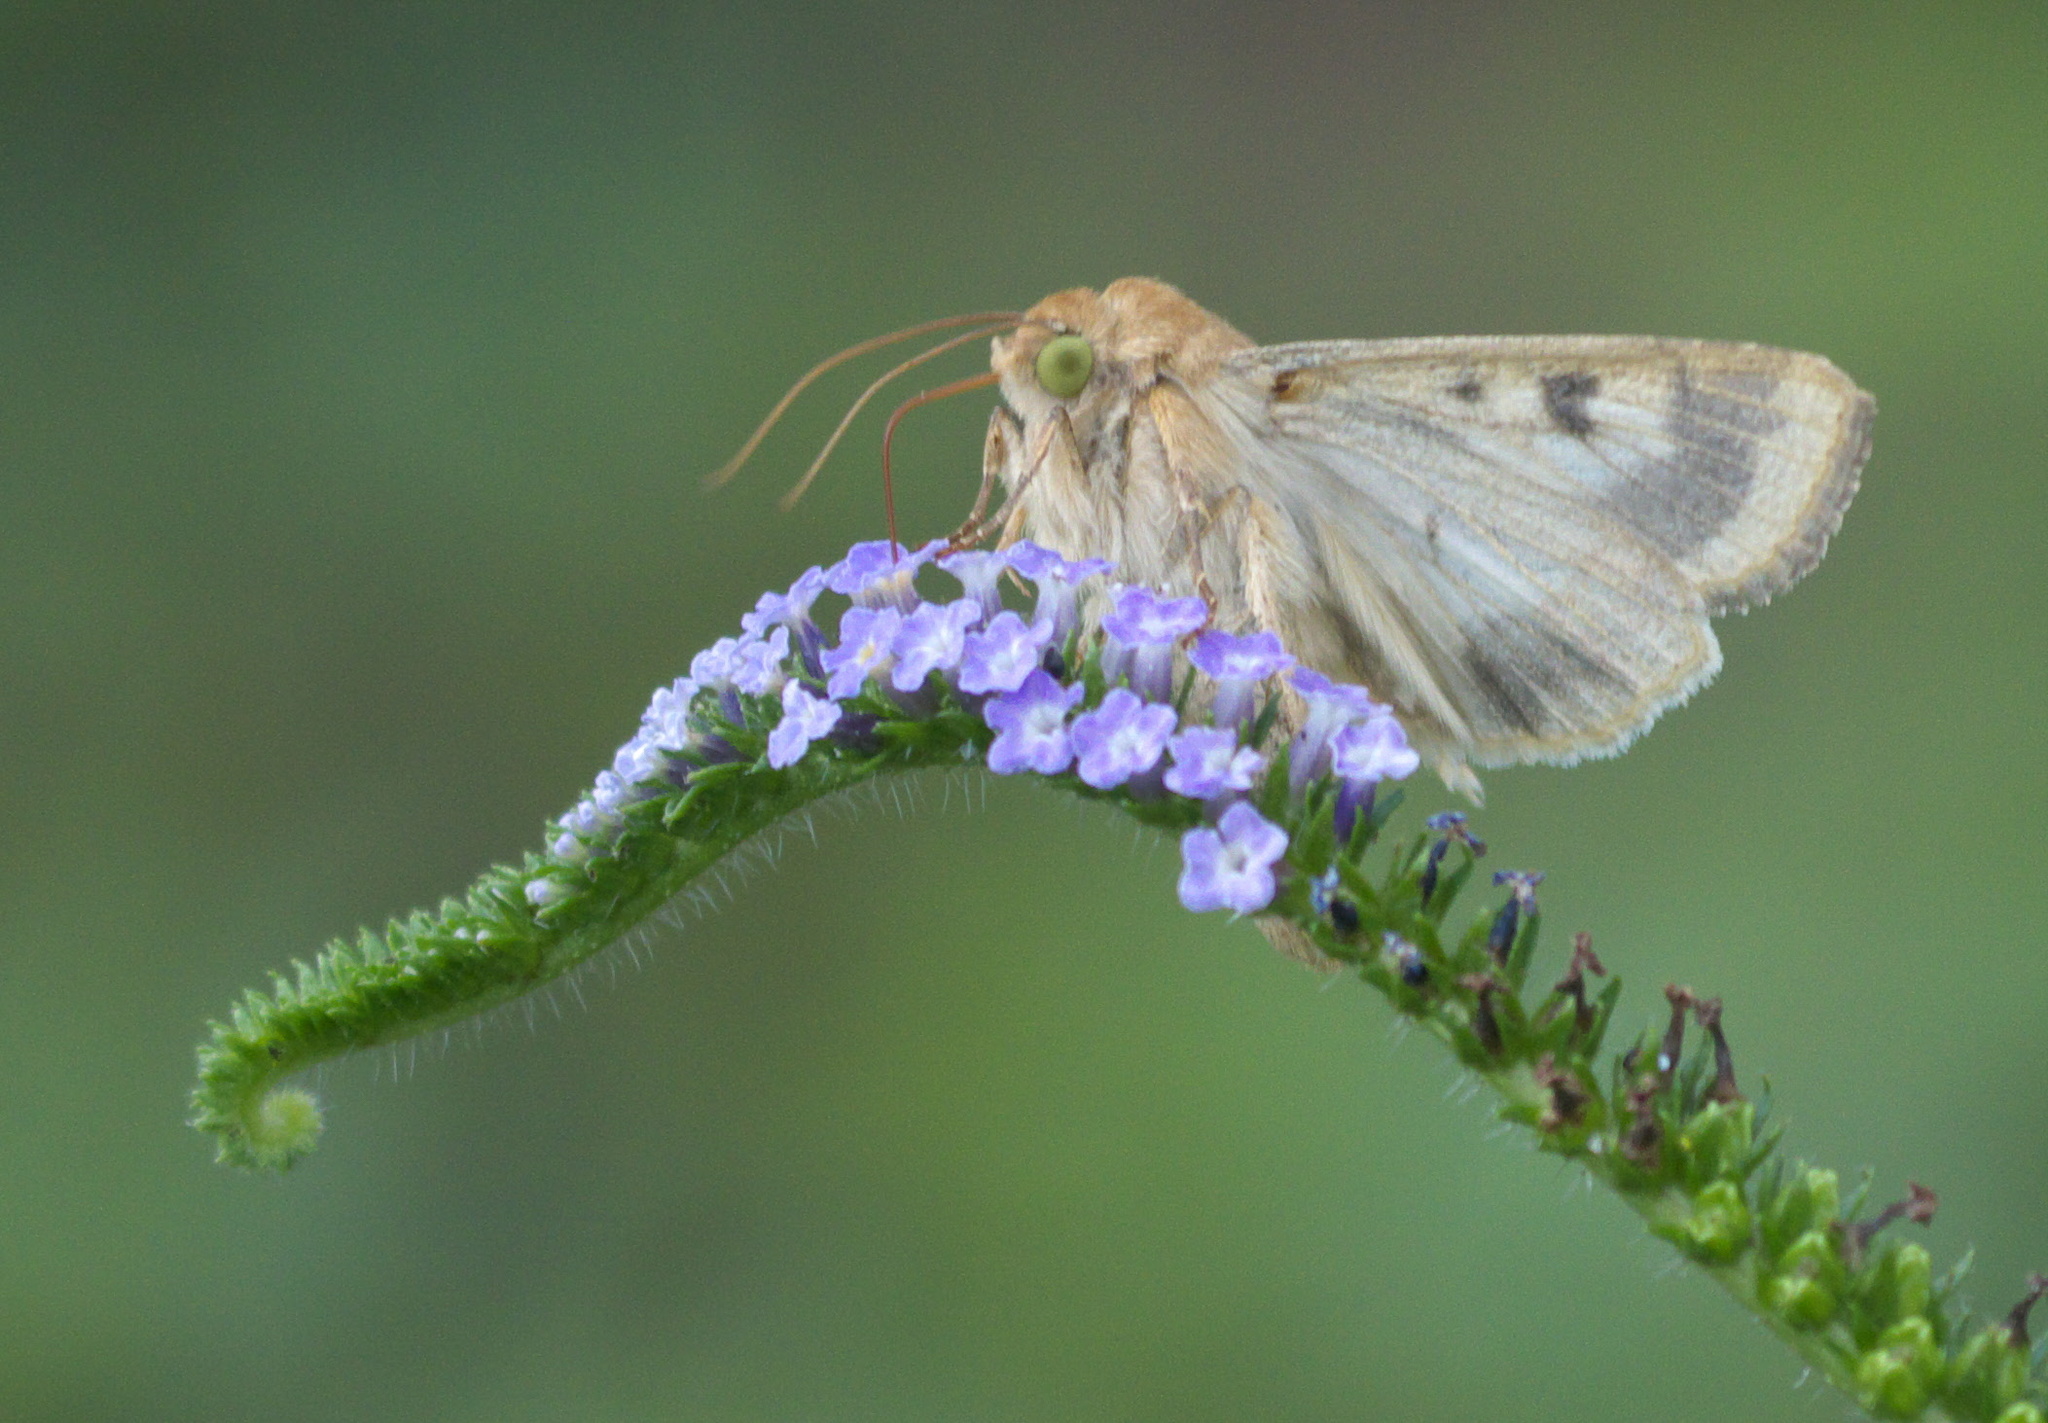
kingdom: Animalia
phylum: Arthropoda
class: Insecta
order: Lepidoptera
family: Noctuidae
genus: Helicoverpa
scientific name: Helicoverpa zea
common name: Bollworm
